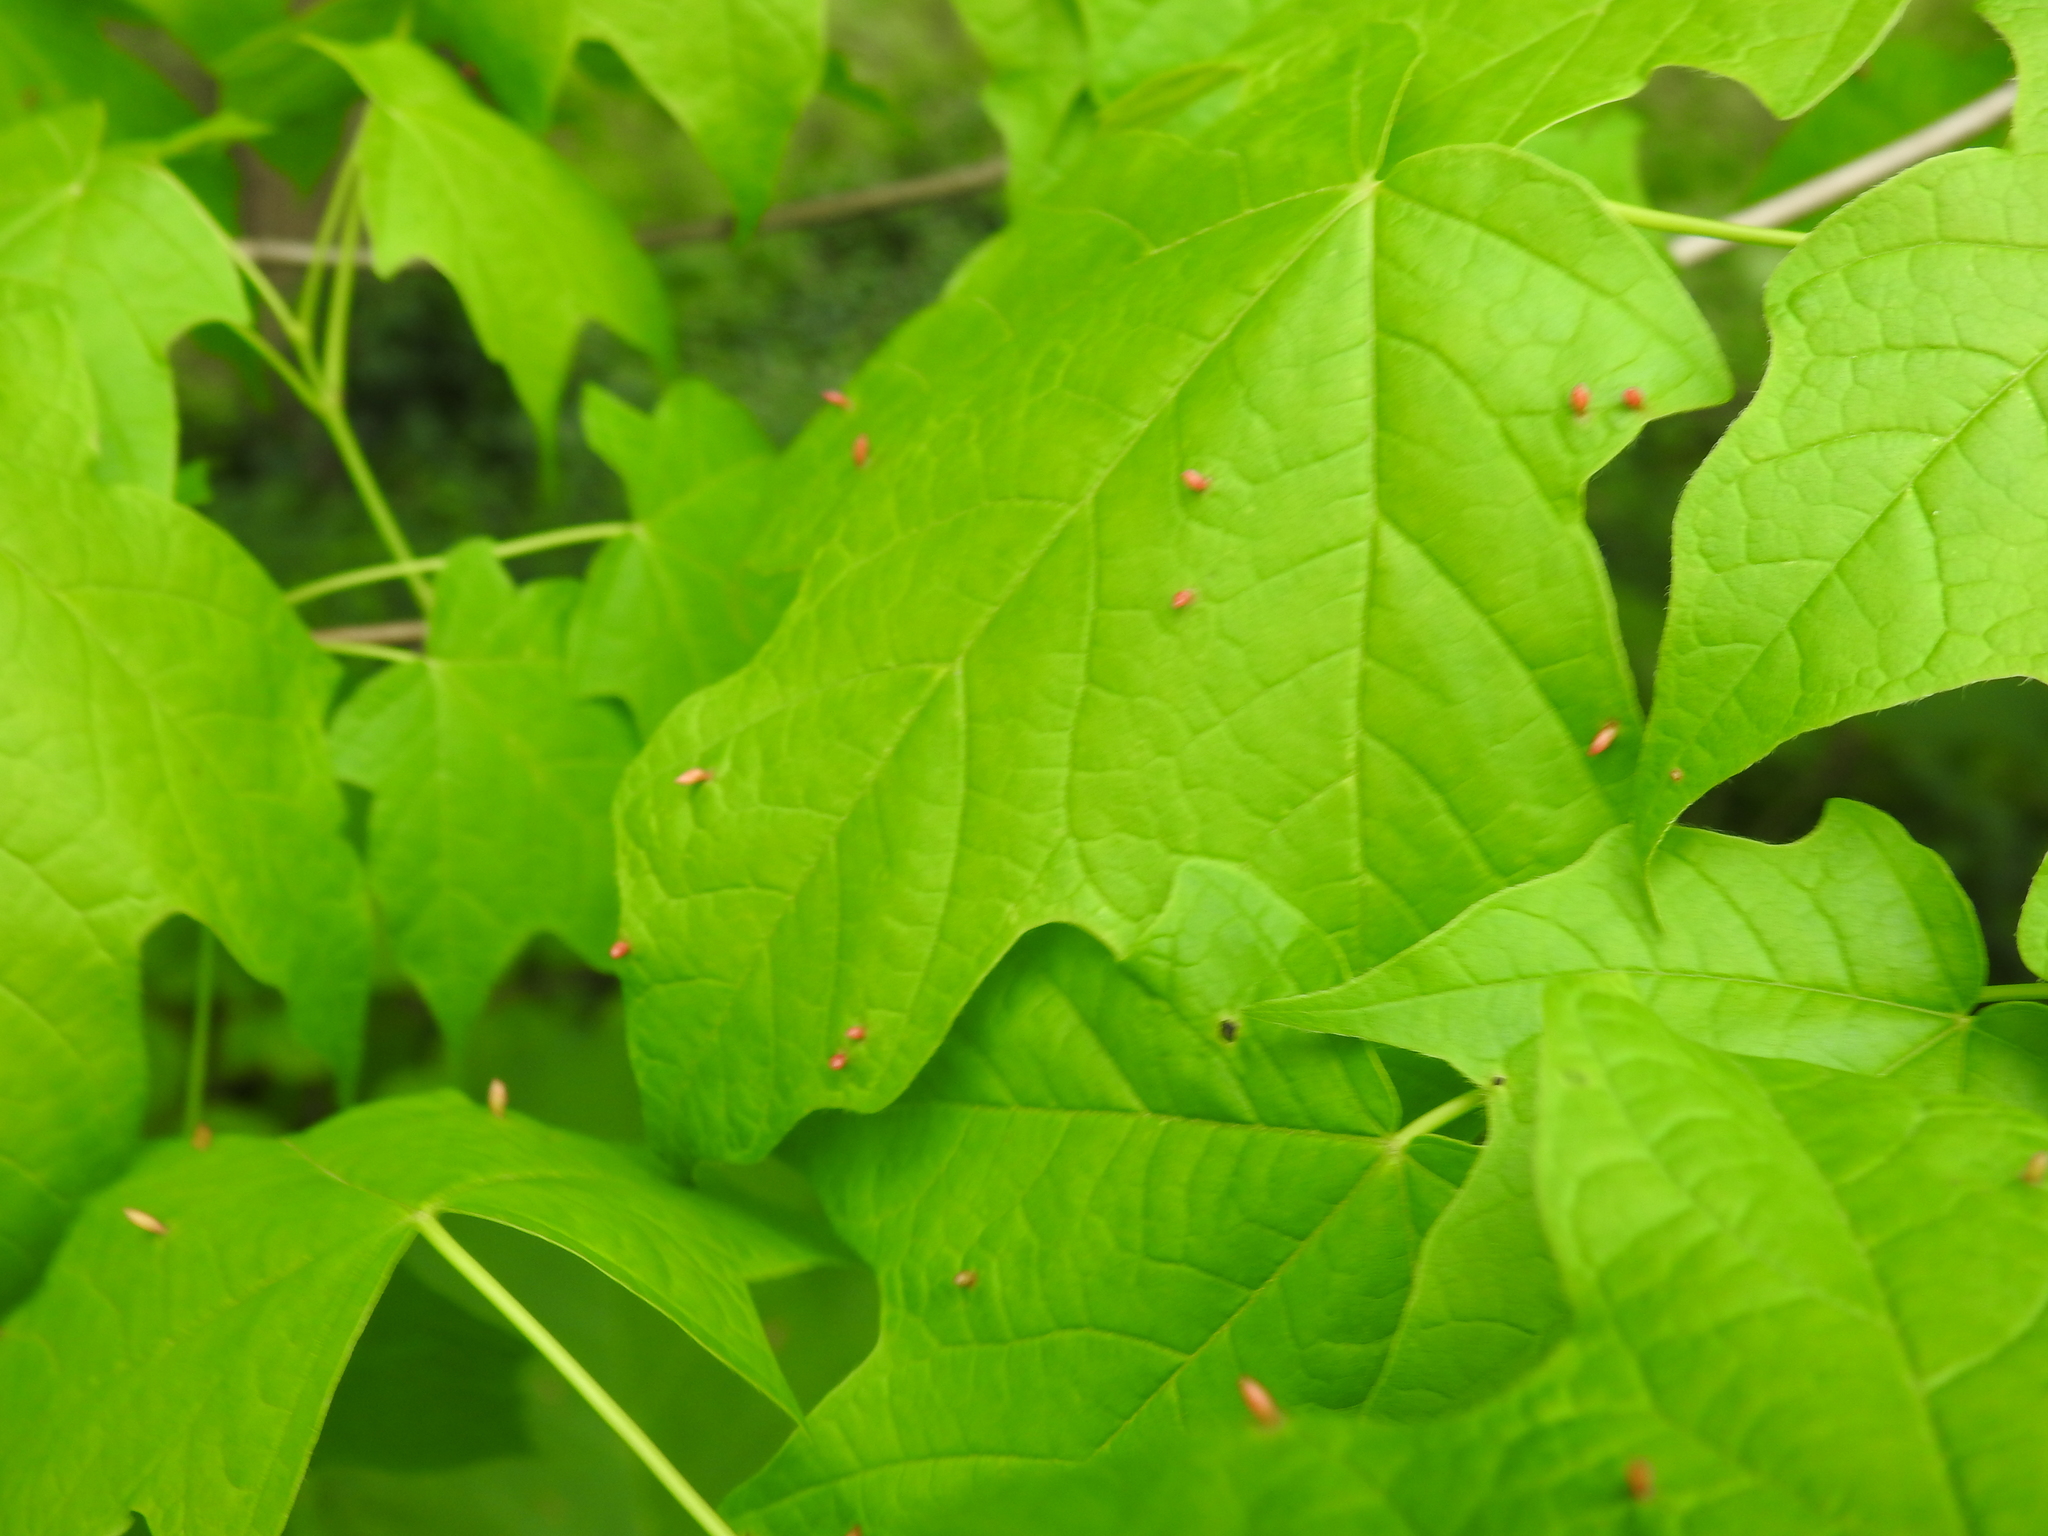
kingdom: Animalia
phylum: Arthropoda
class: Arachnida
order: Trombidiformes
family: Eriophyidae
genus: Vasates
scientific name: Vasates aceriscrumena
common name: Maple spindle gall mite
